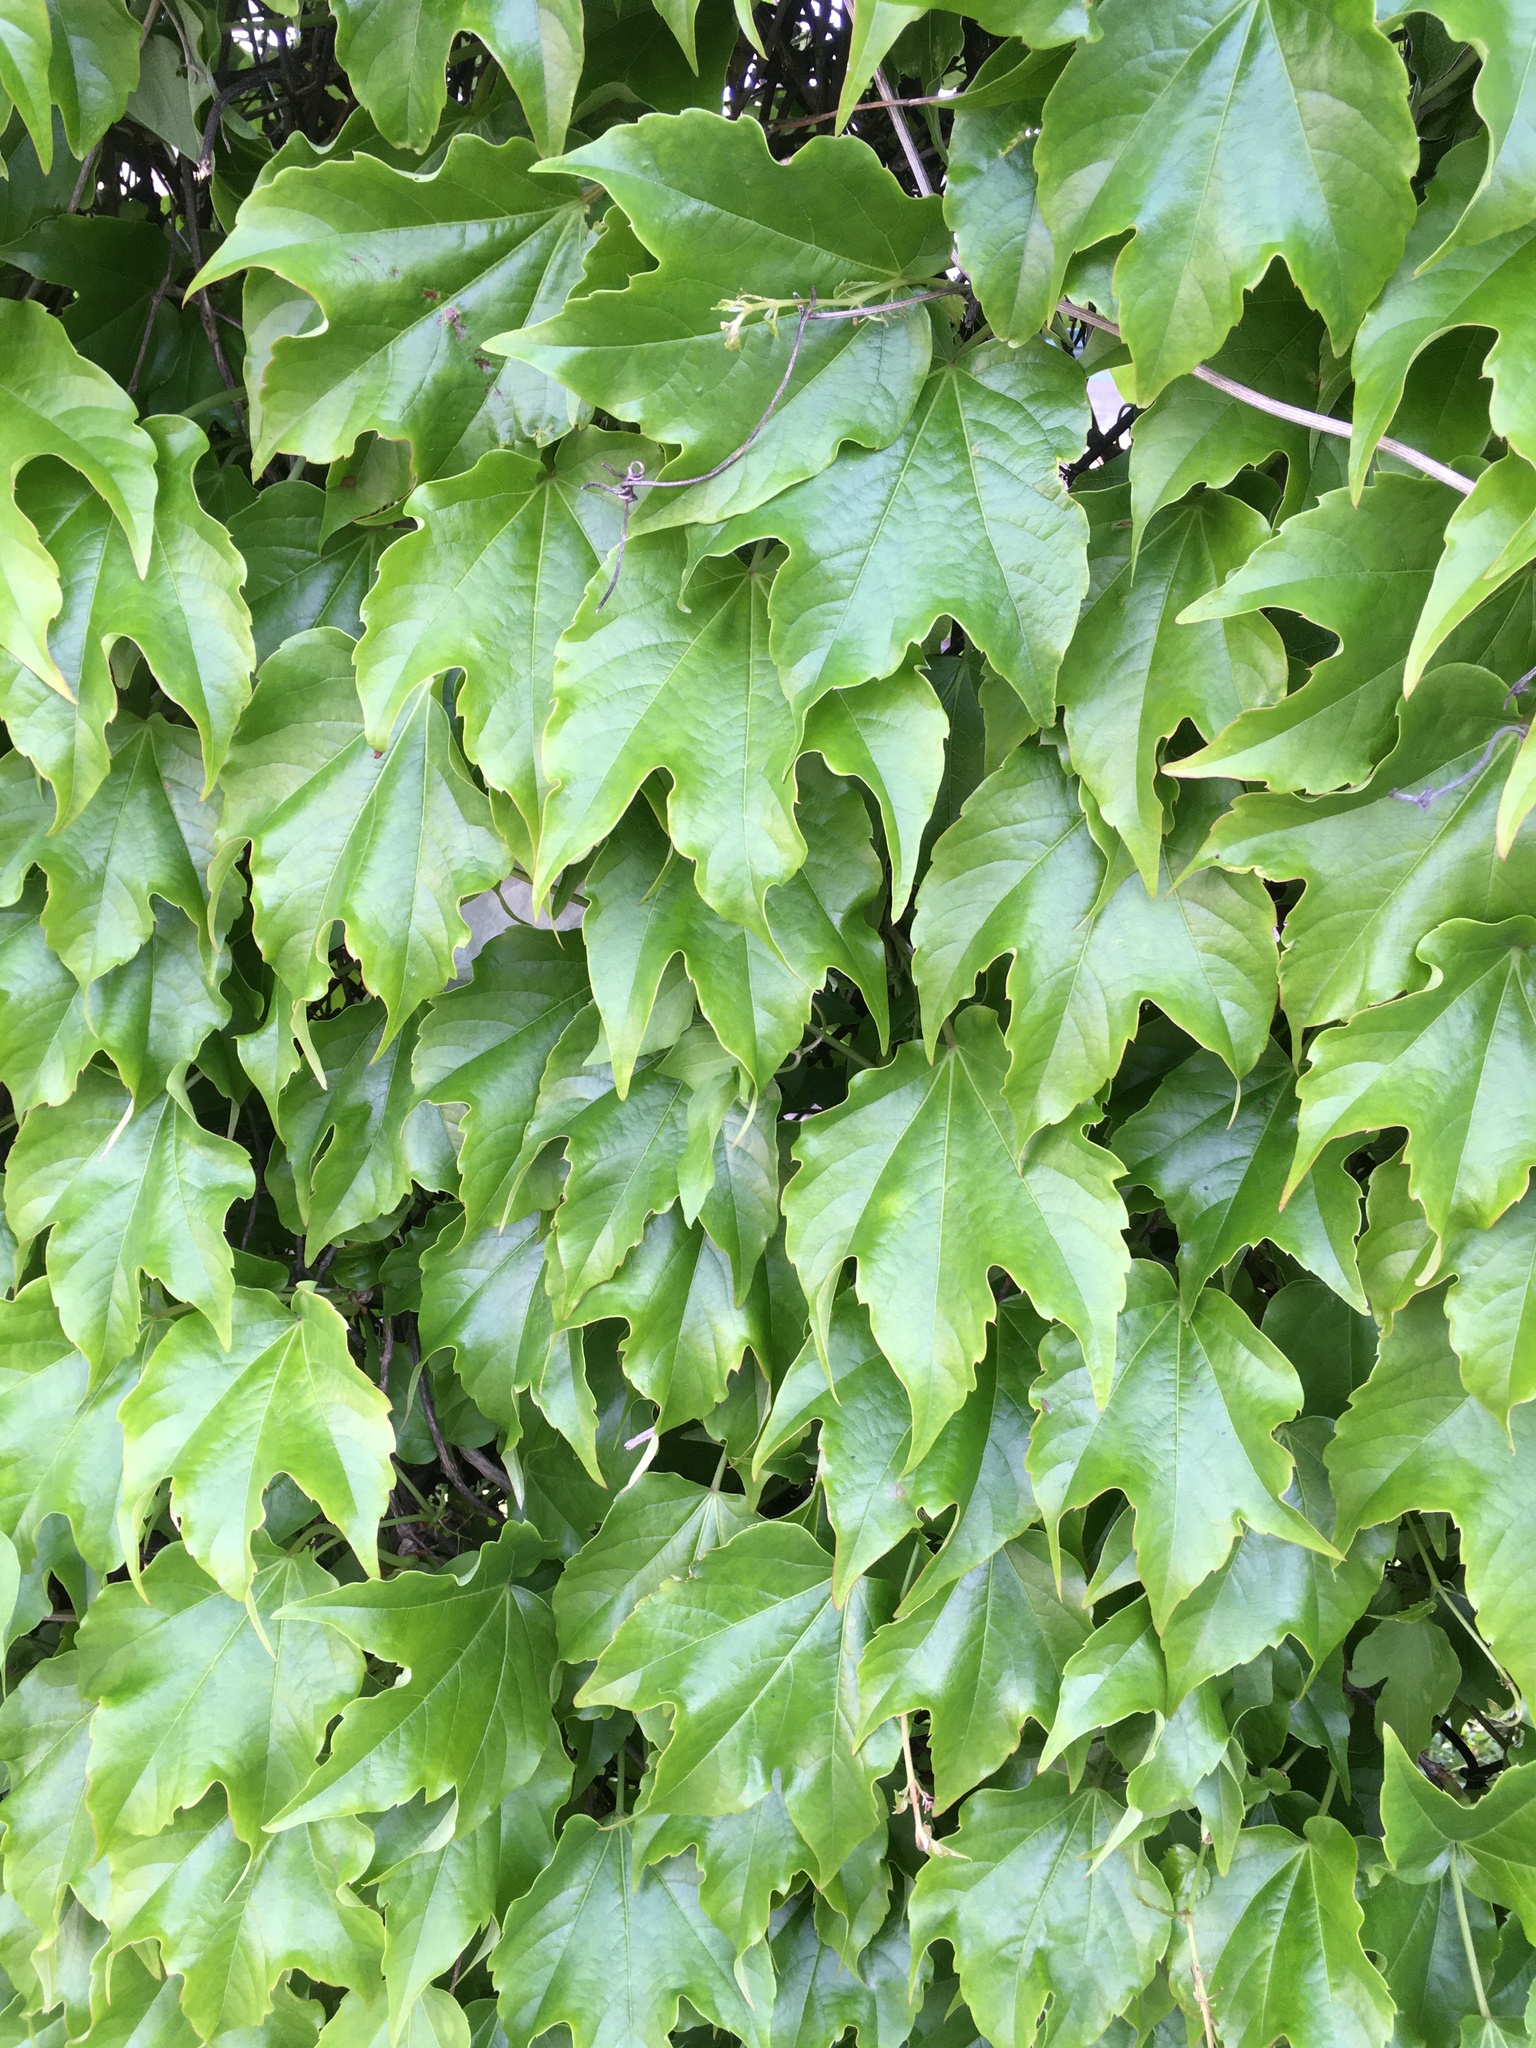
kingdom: Plantae
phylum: Tracheophyta
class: Magnoliopsida
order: Vitales
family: Vitaceae
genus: Parthenocissus
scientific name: Parthenocissus tricuspidata
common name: Boston ivy
